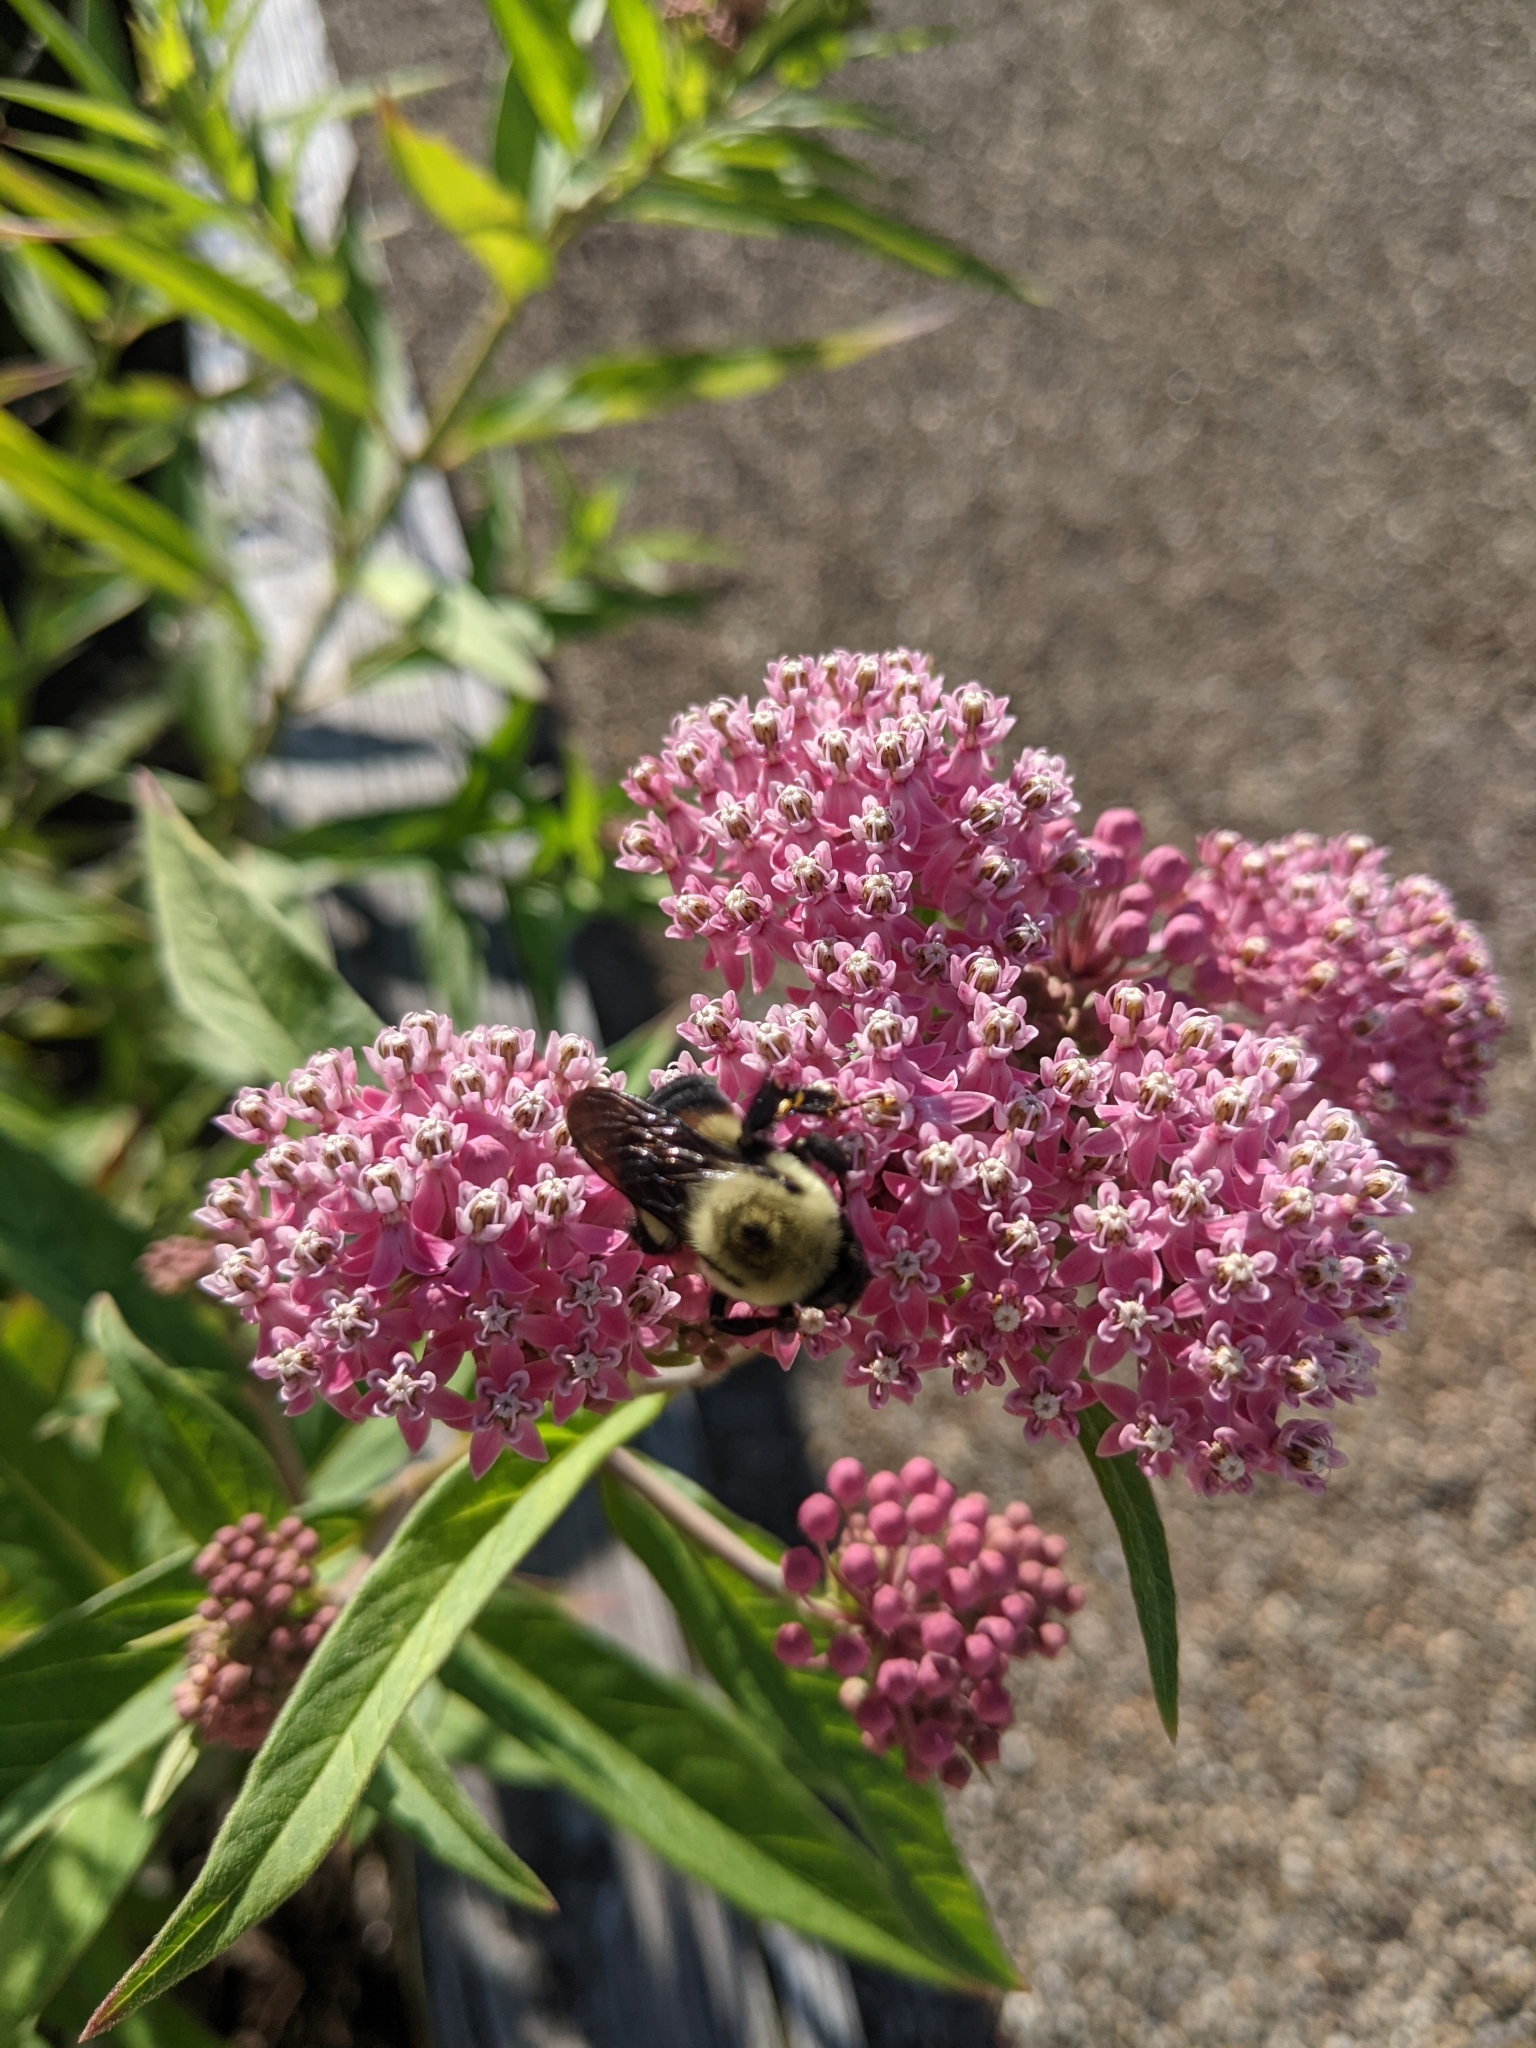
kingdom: Animalia
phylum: Arthropoda
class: Insecta
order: Hymenoptera
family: Apidae
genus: Bombus
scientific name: Bombus griseocollis
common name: Brown-belted bumble bee
